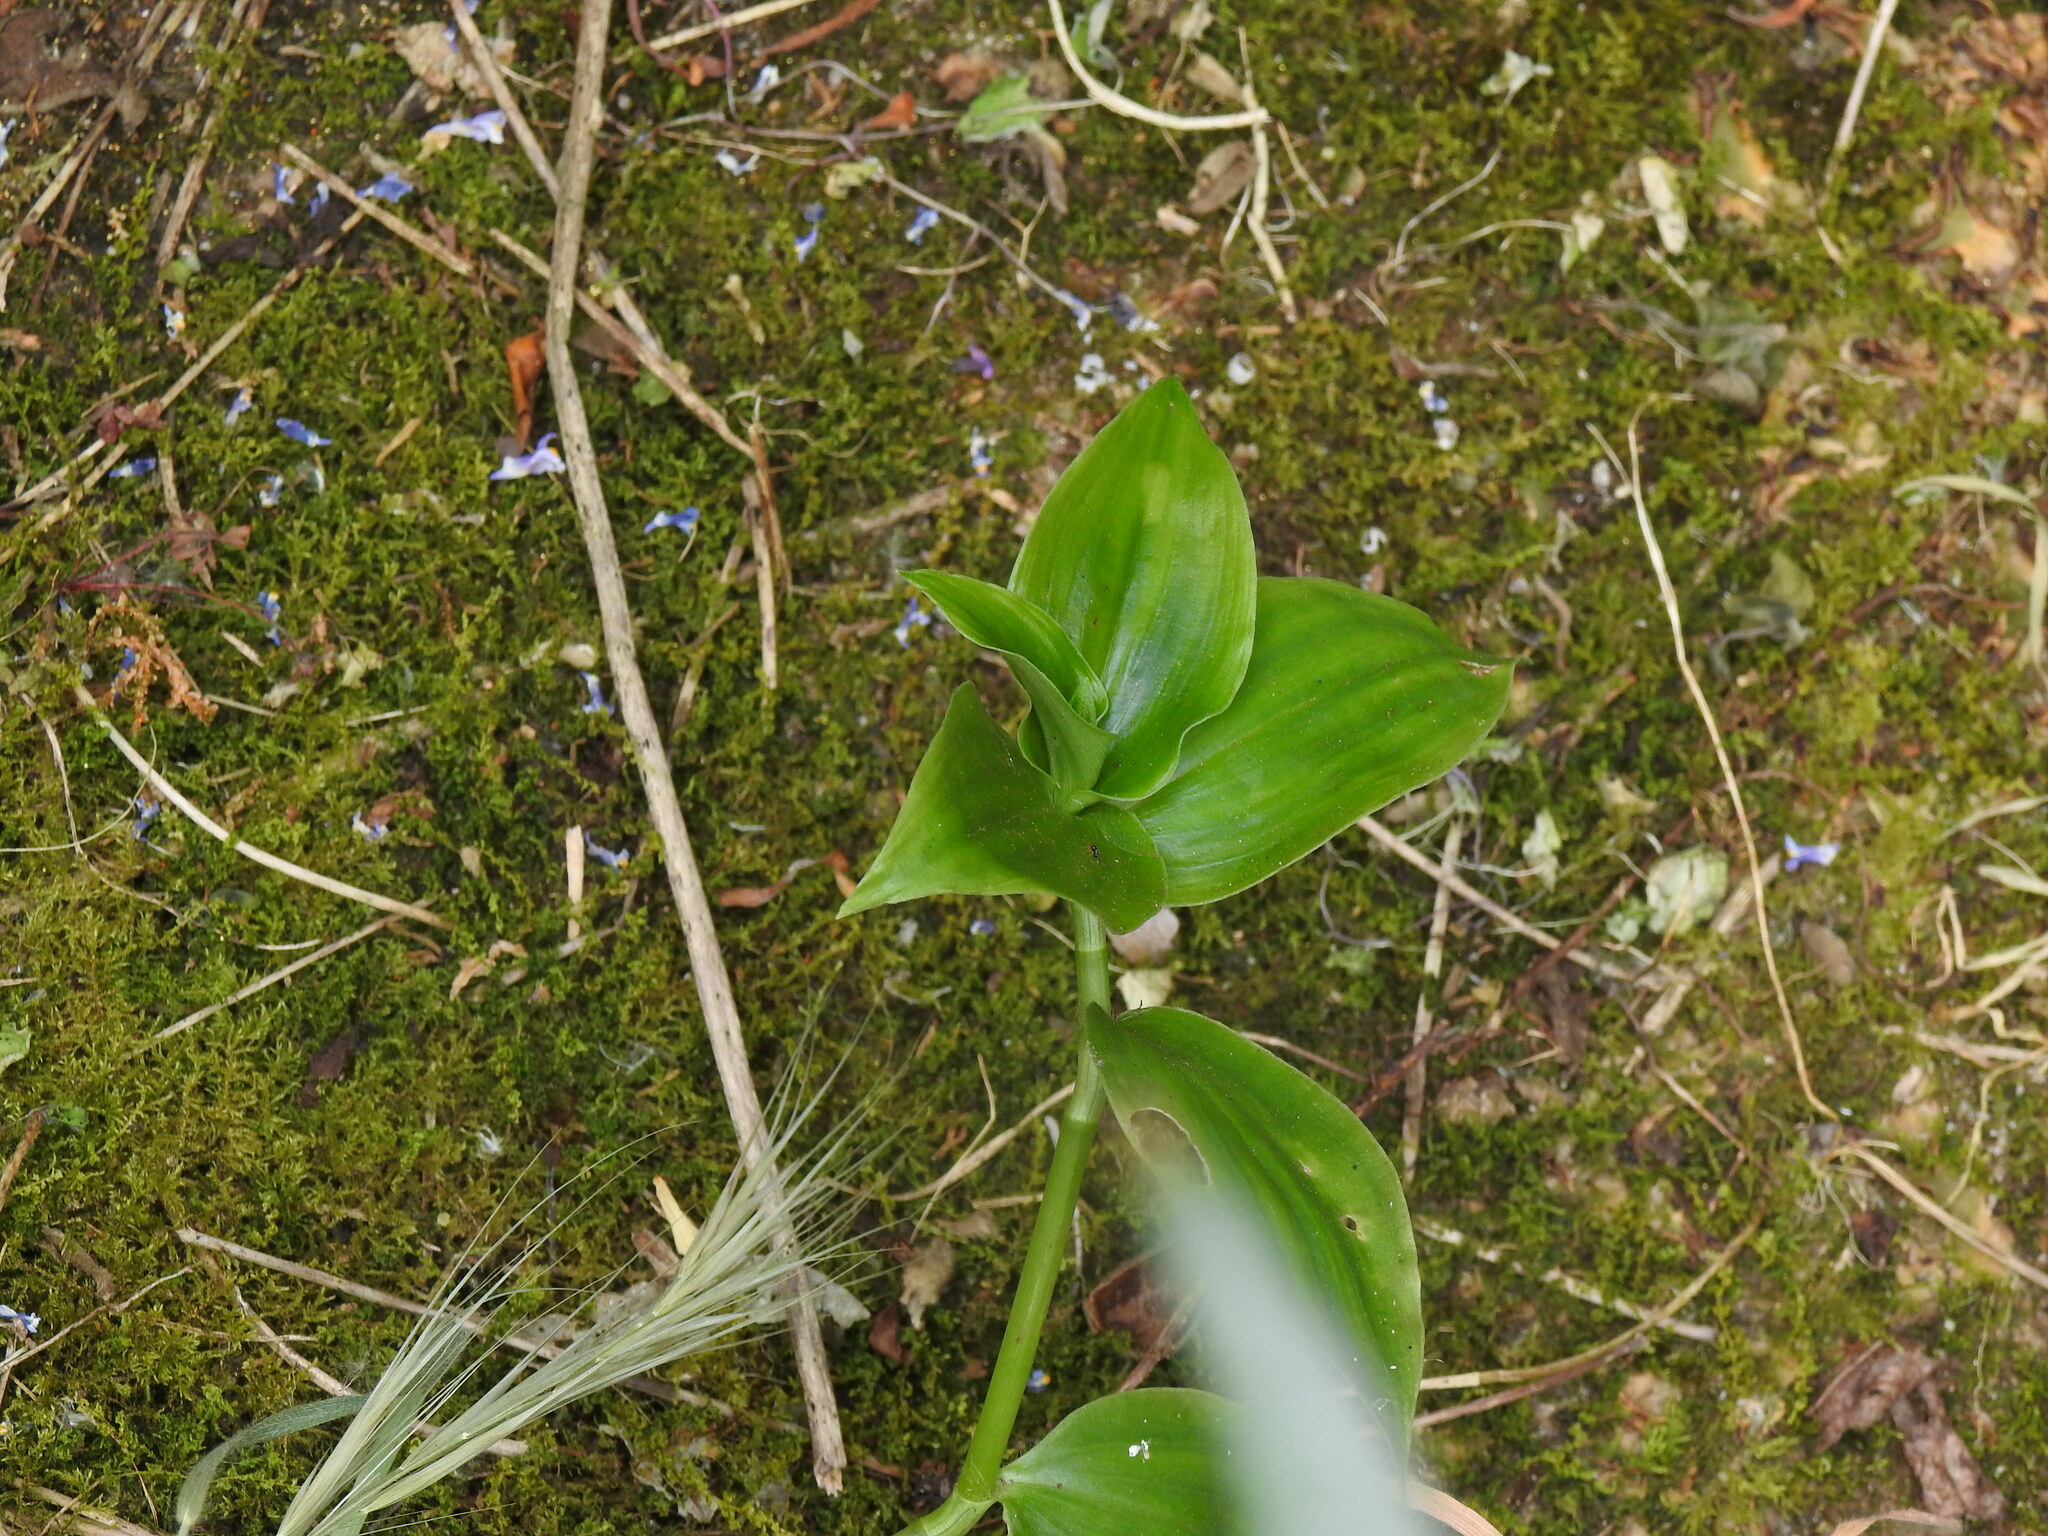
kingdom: Plantae
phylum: Tracheophyta
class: Liliopsida
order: Commelinales
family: Commelinaceae
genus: Tradescantia
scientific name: Tradescantia fluminensis
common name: Wandering-jew
